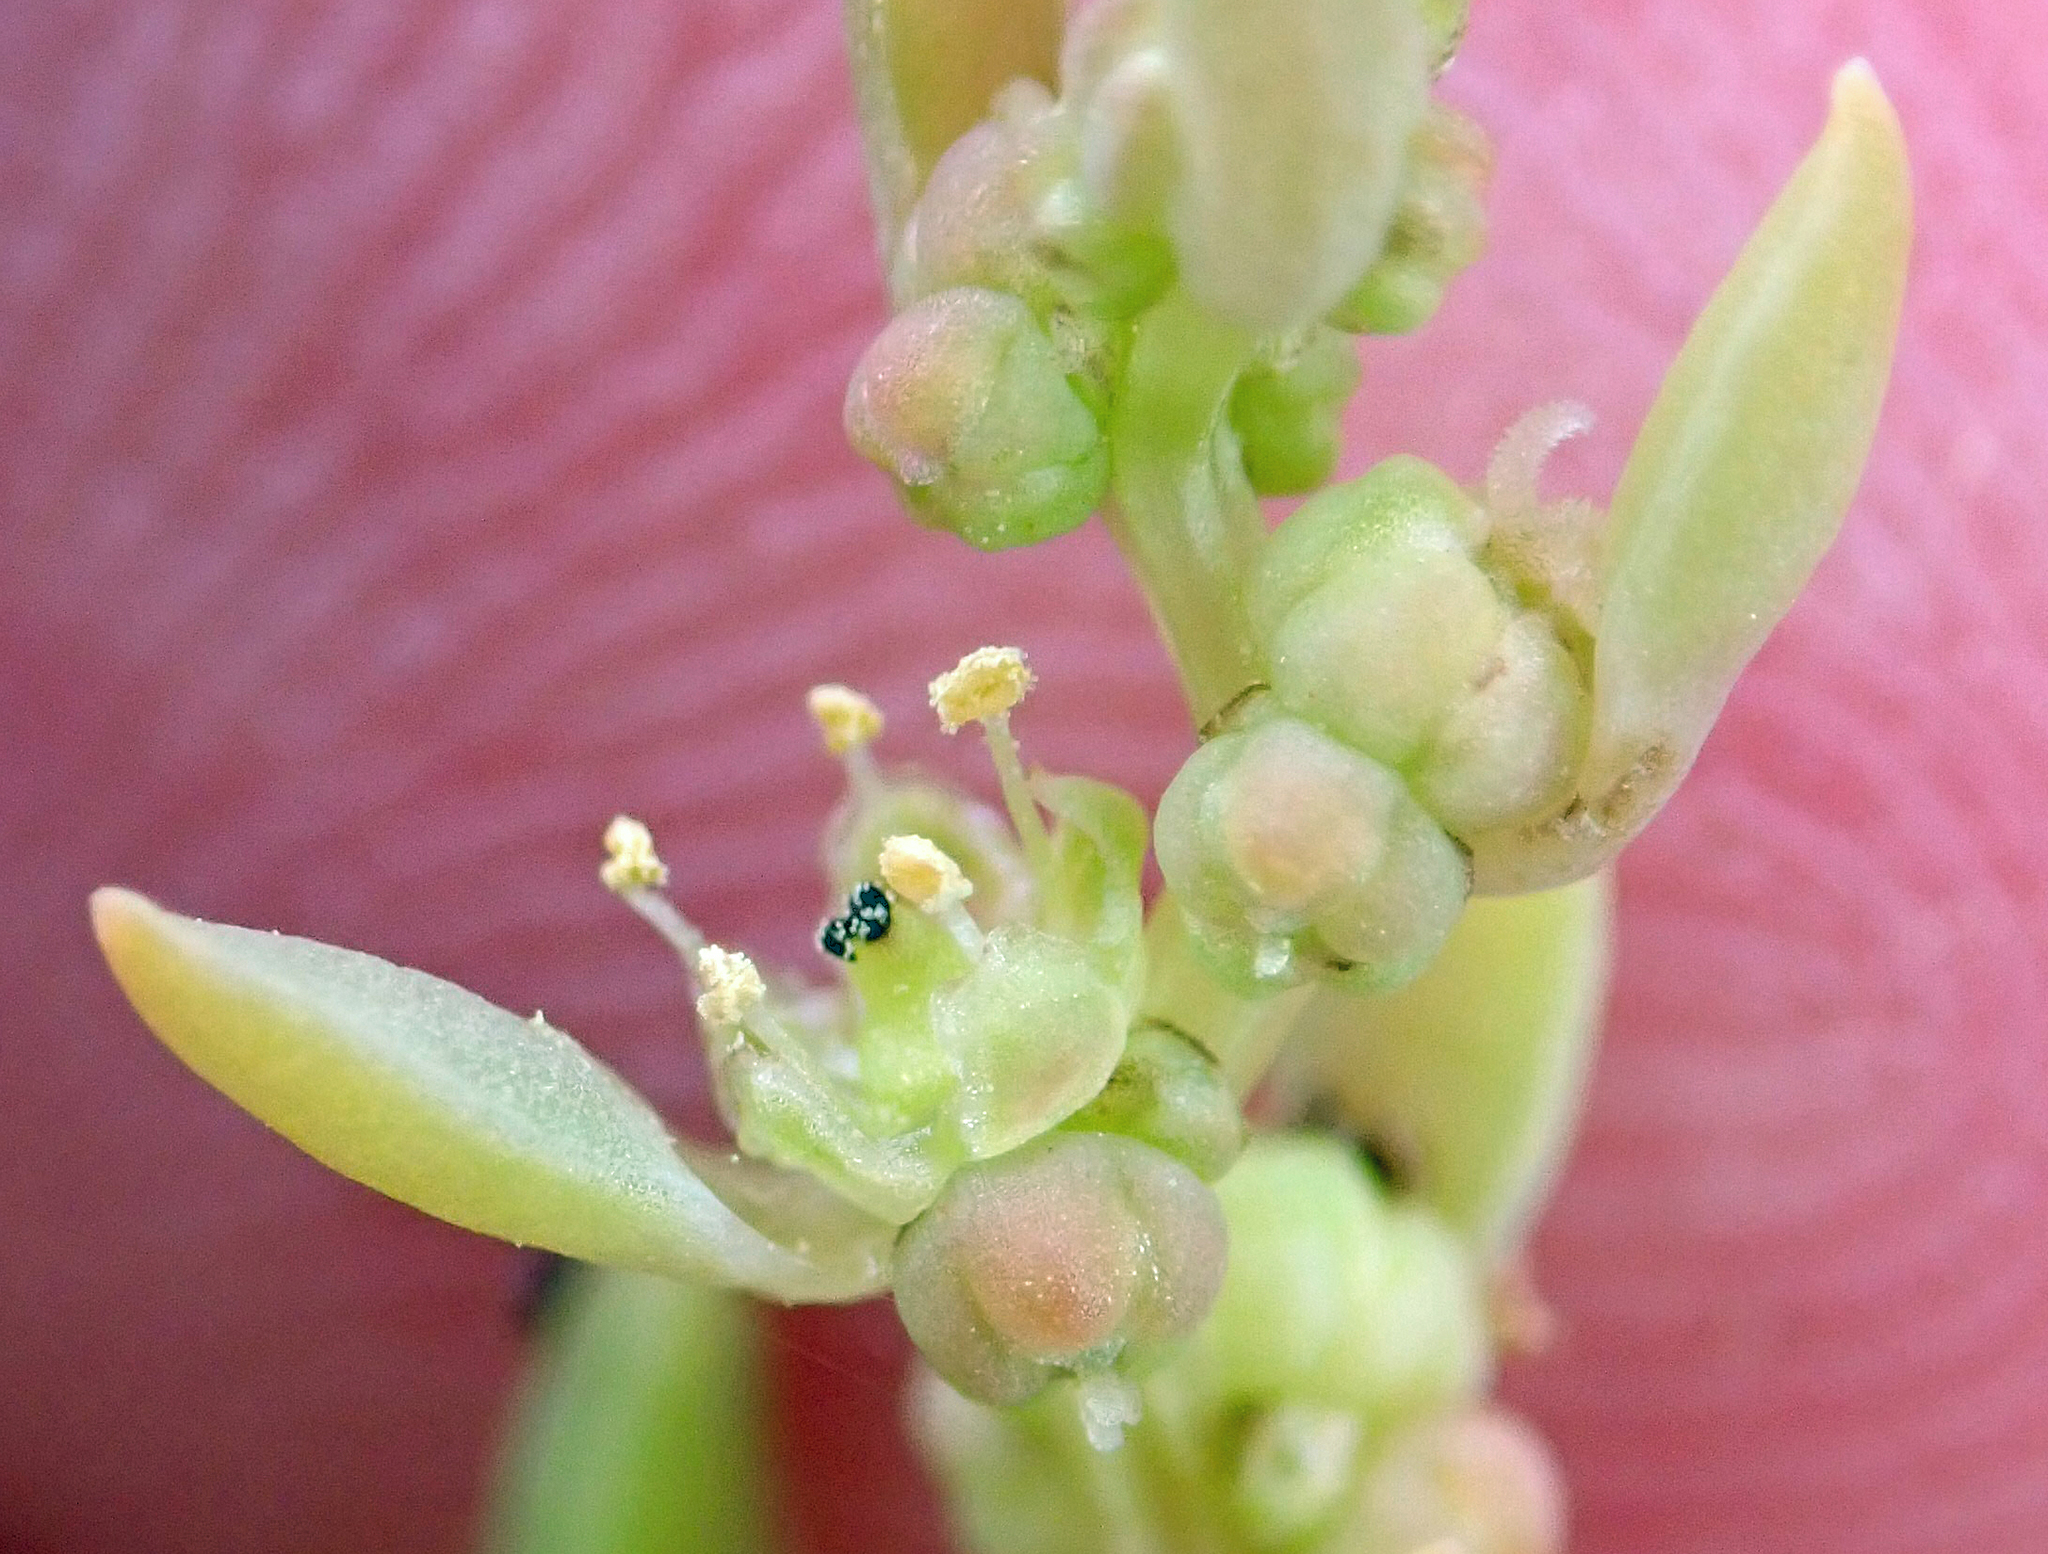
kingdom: Plantae
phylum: Tracheophyta
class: Magnoliopsida
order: Caryophyllales
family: Amaranthaceae
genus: Suaeda
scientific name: Suaeda novae-zelandiae
